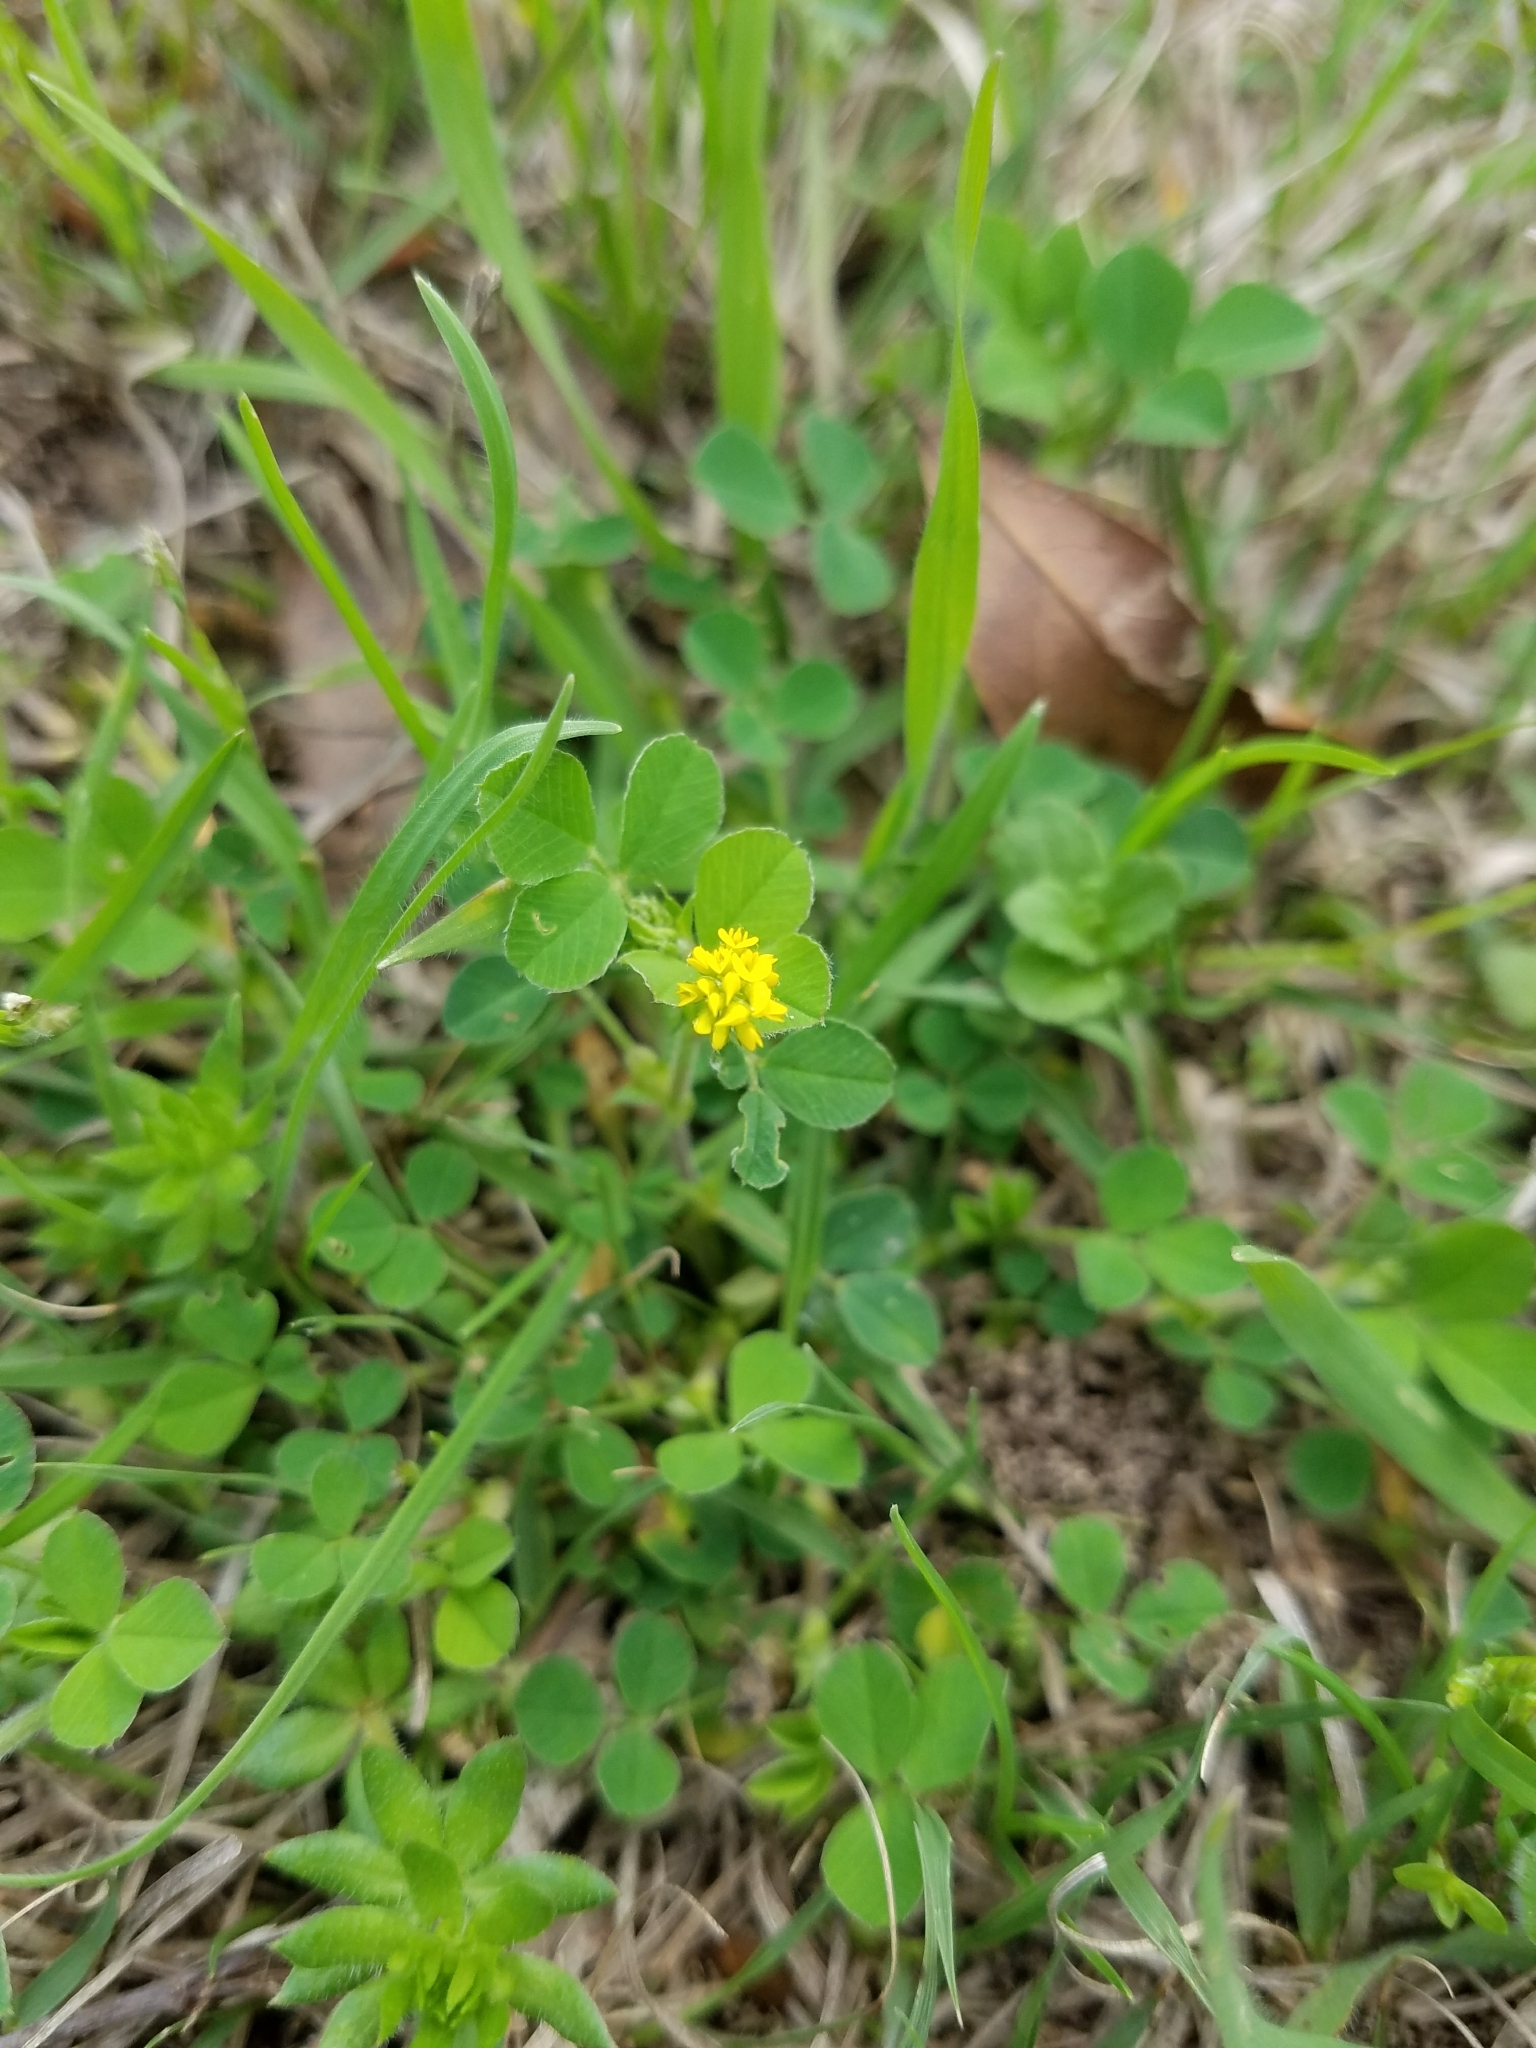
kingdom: Plantae
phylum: Tracheophyta
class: Magnoliopsida
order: Fabales
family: Fabaceae
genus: Medicago
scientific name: Medicago lupulina
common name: Black medick
